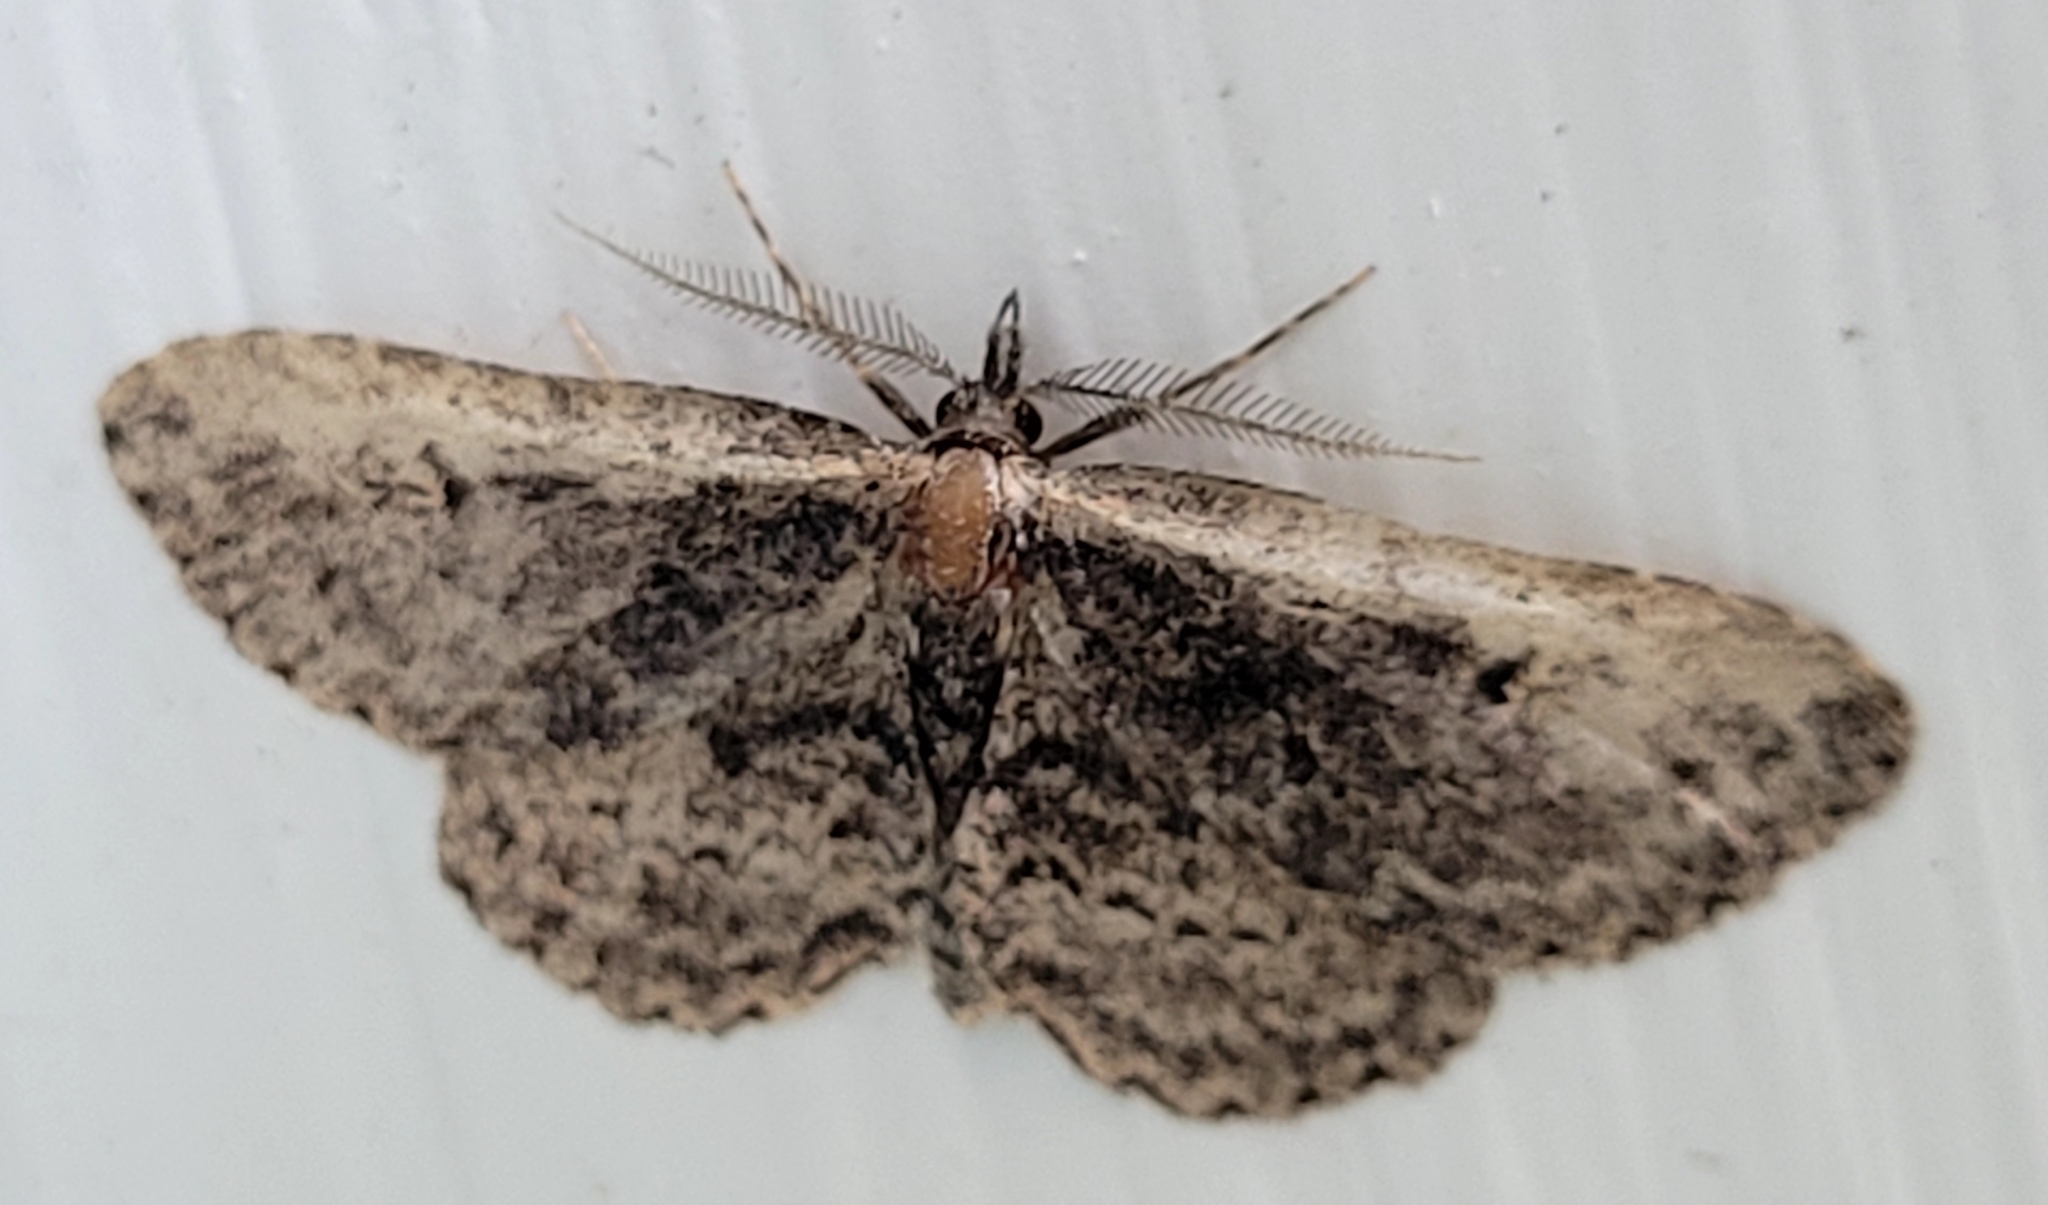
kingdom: Animalia
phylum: Arthropoda
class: Insecta
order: Lepidoptera
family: Erebidae
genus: Mycterophora
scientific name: Mycterophora inexplicata
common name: Pale-edged snout moth
